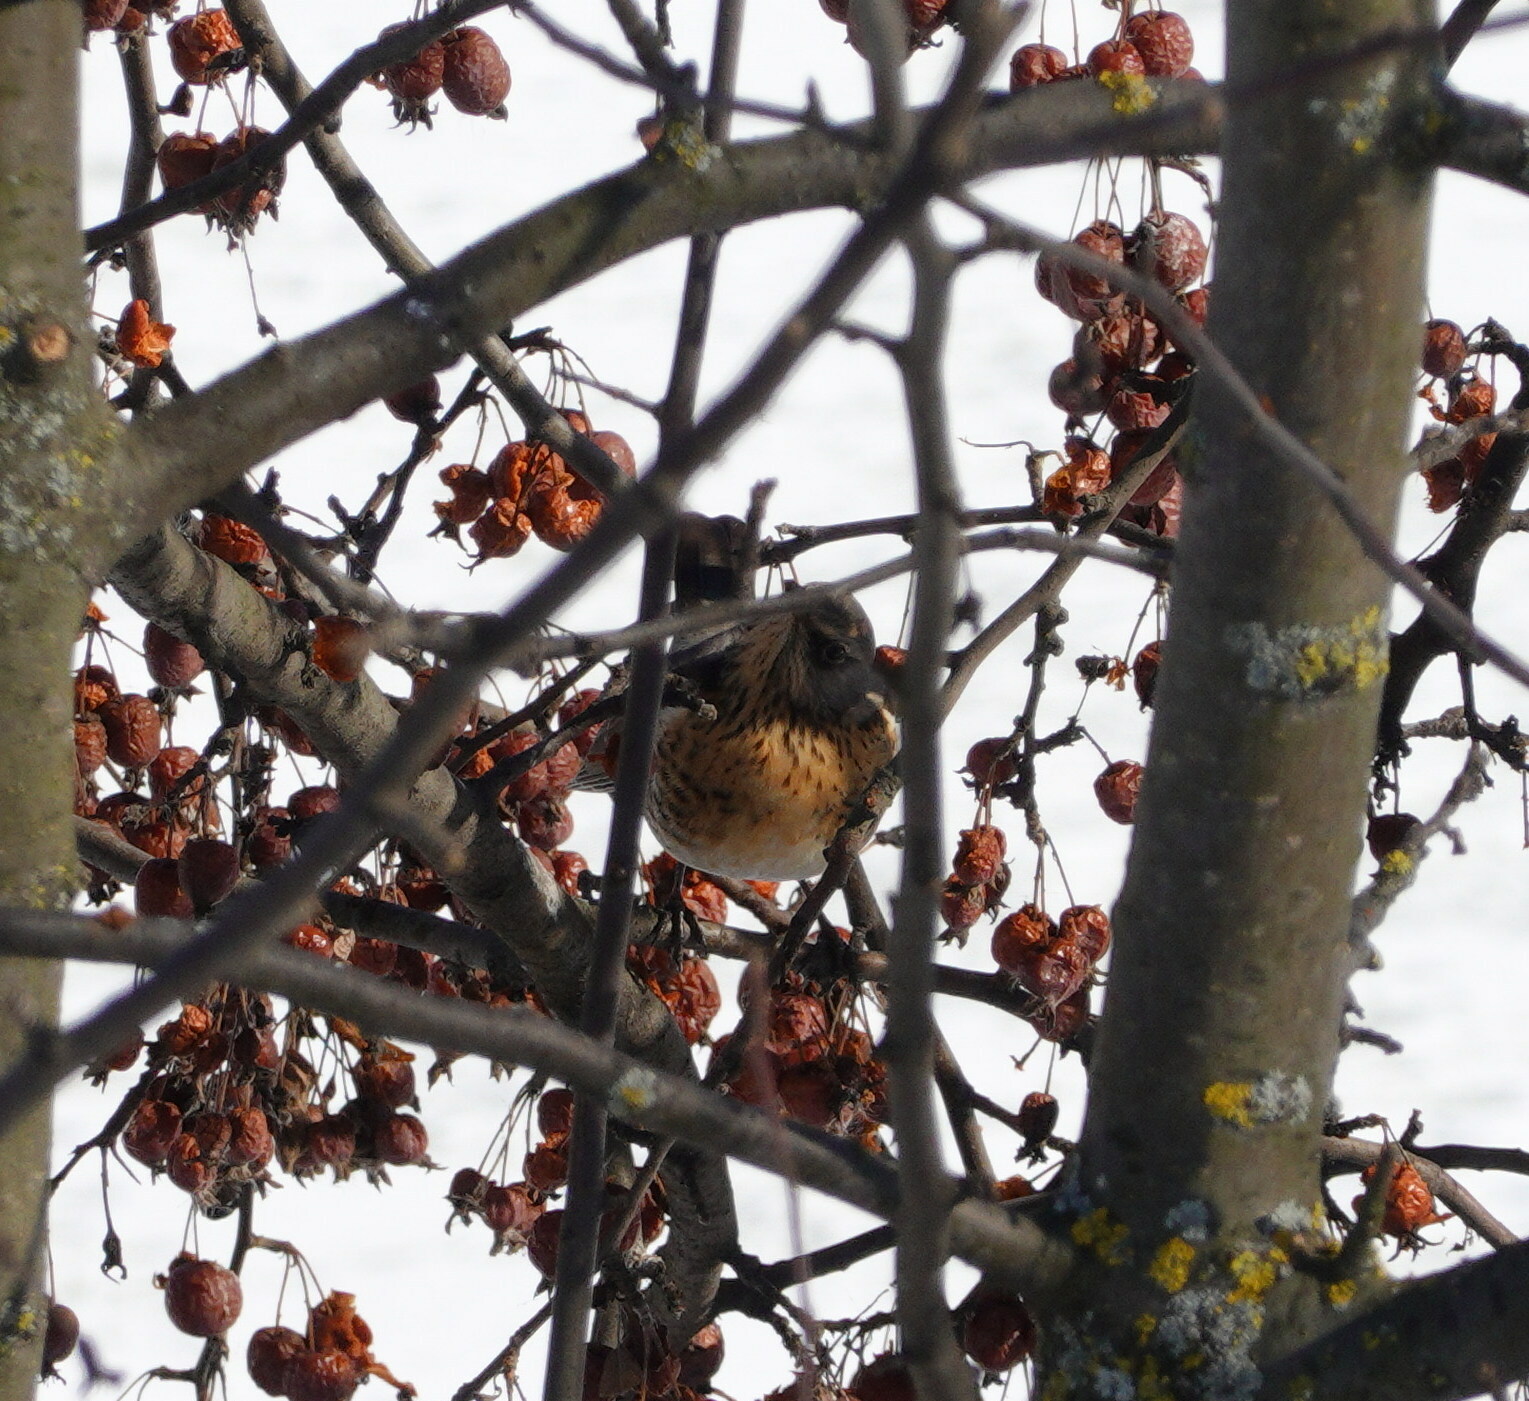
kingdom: Animalia
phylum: Chordata
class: Aves
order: Passeriformes
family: Turdidae
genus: Turdus
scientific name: Turdus pilaris
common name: Fieldfare
